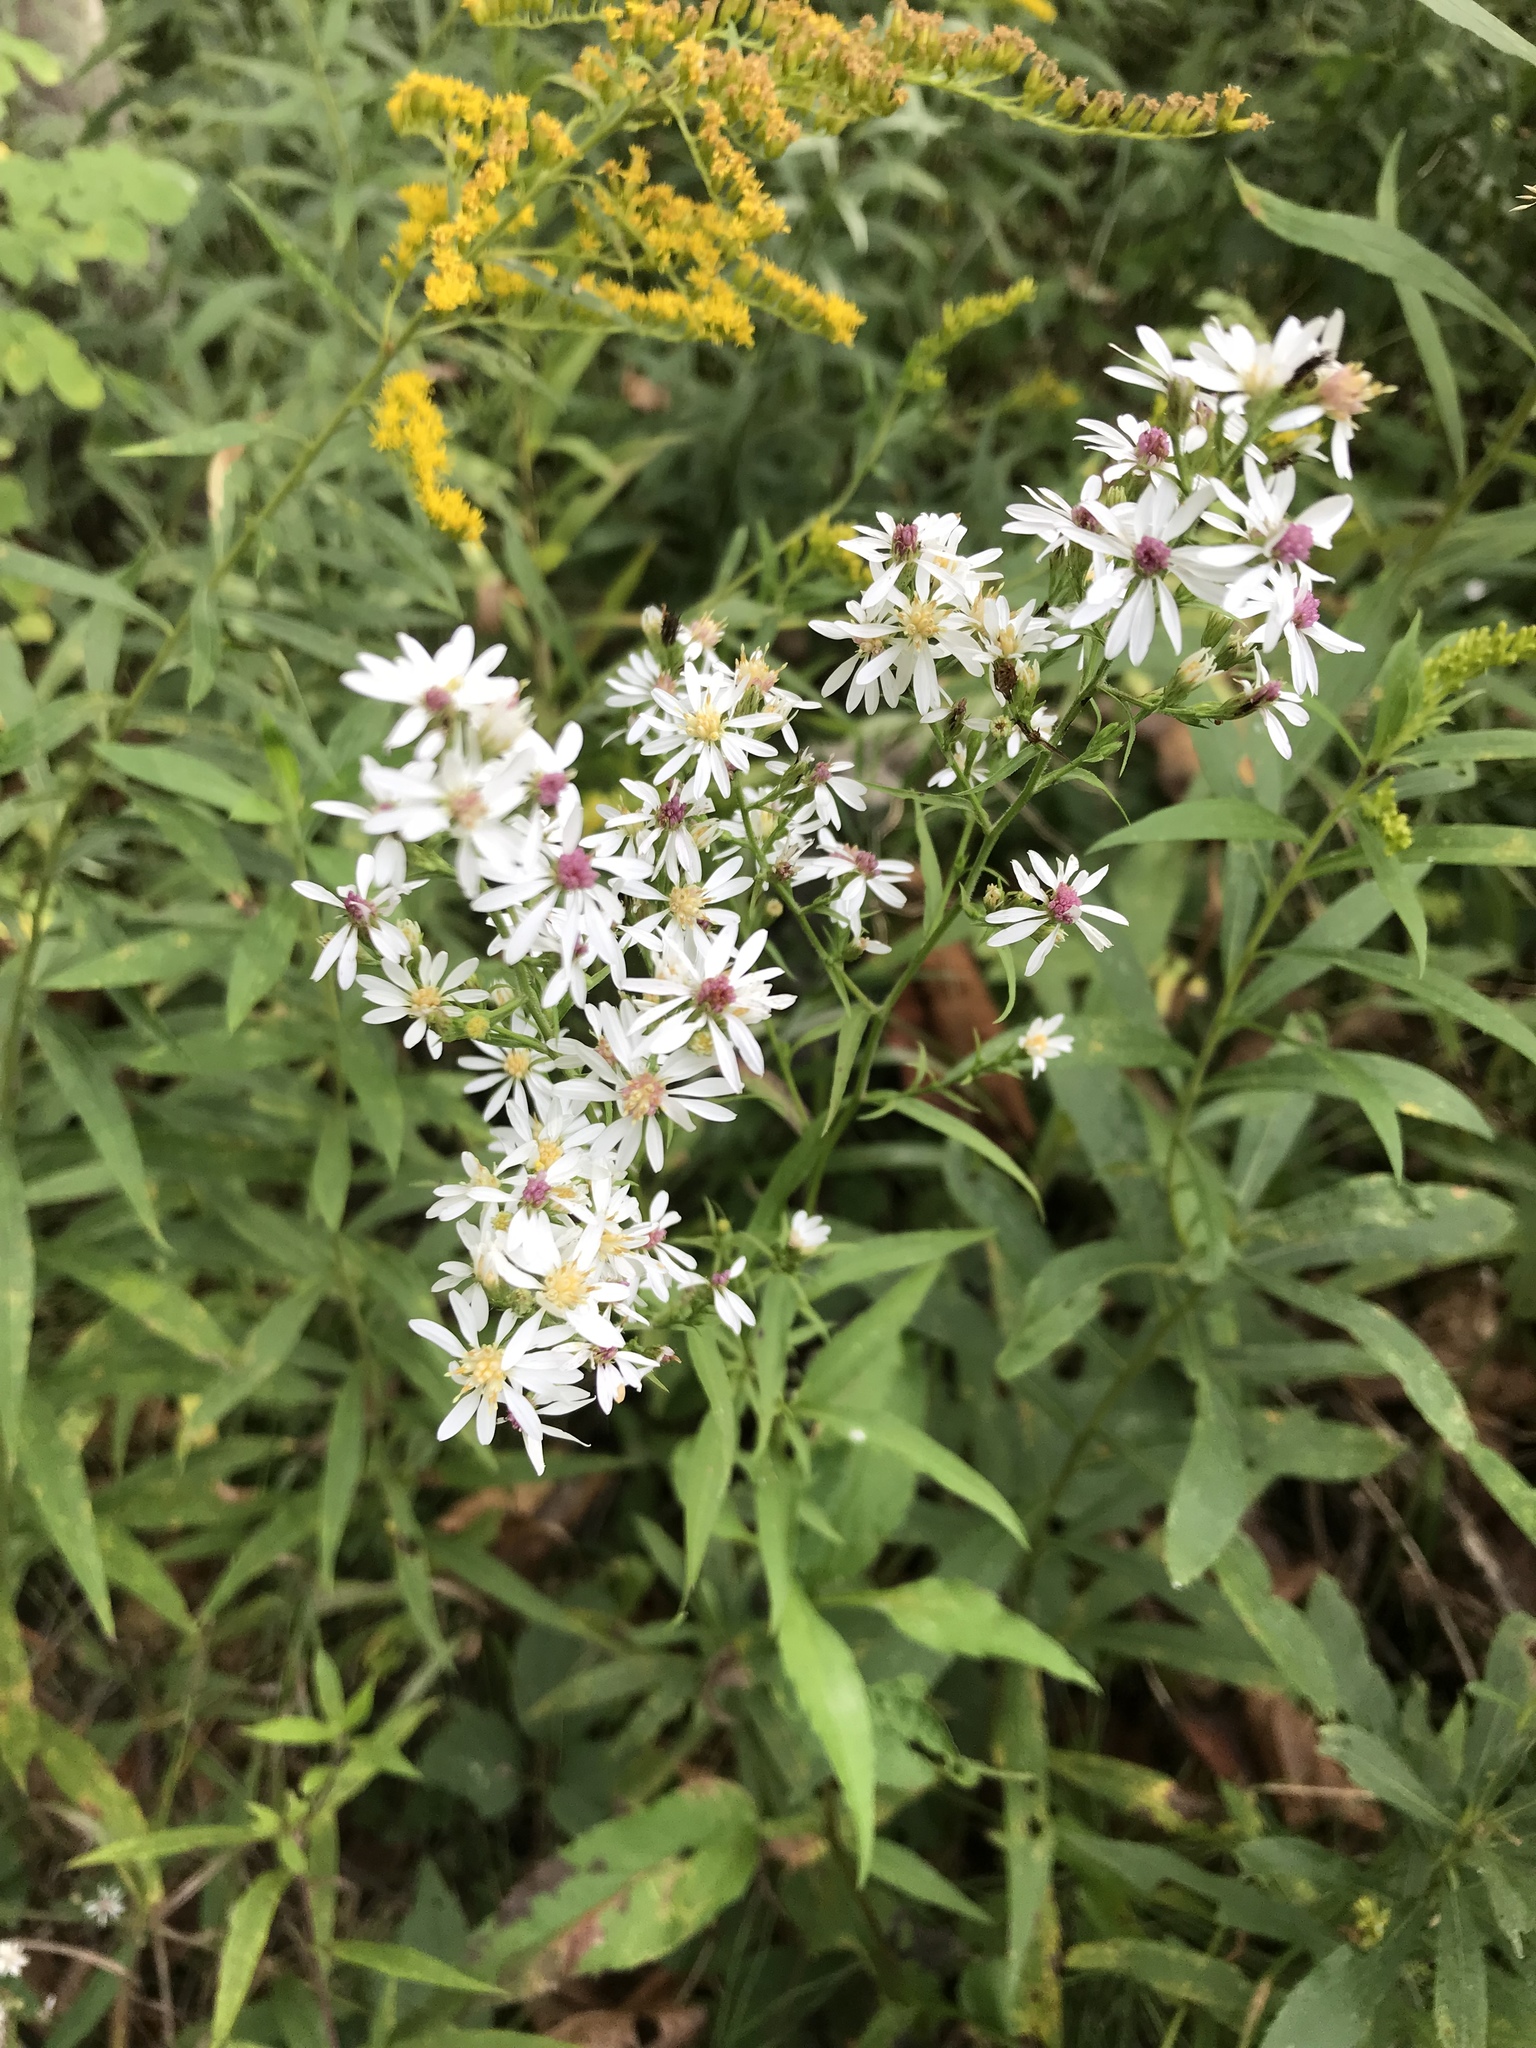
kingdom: Plantae
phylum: Tracheophyta
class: Magnoliopsida
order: Asterales
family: Asteraceae
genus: Symphyotrichum
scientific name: Symphyotrichum urophyllum
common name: Arrow-leaved aster
